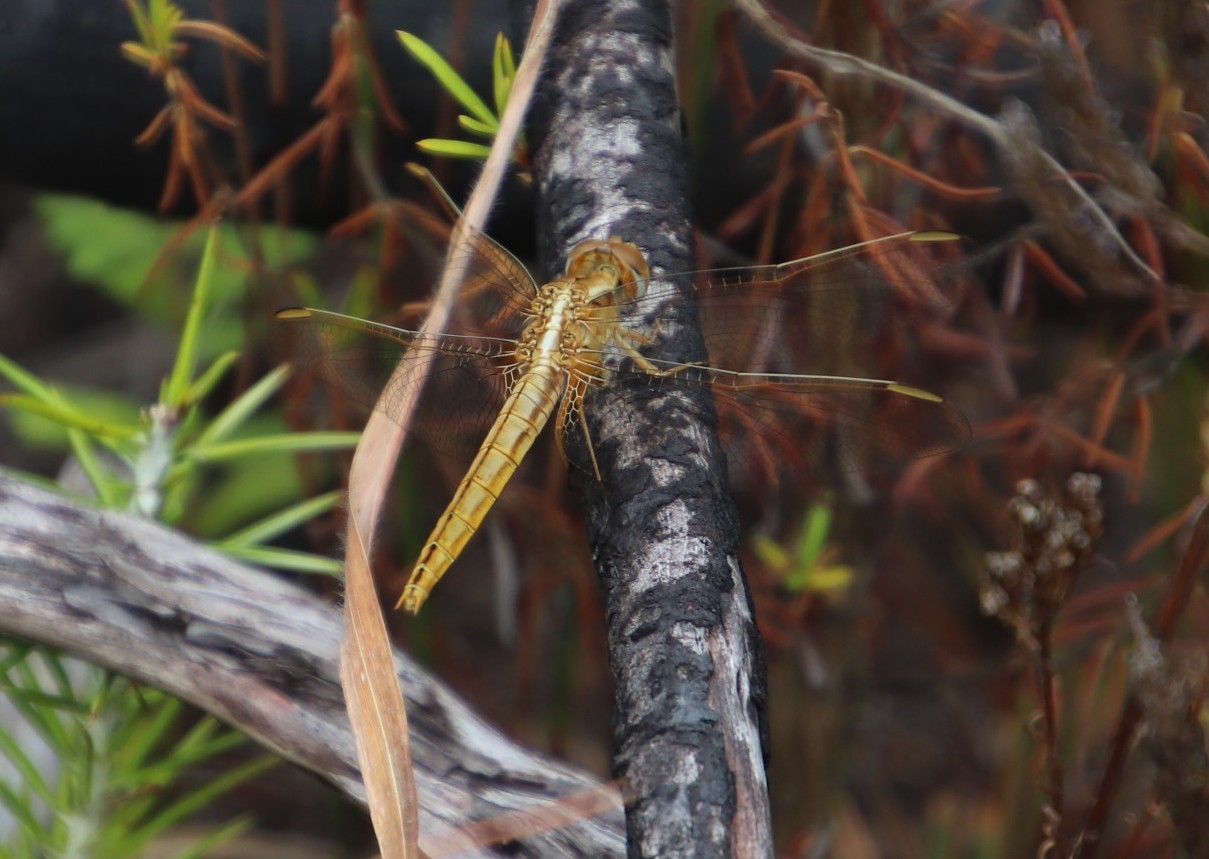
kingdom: Animalia
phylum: Arthropoda
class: Insecta
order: Odonata
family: Libellulidae
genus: Crocothemis
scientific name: Crocothemis erythraea
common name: Scarlet dragonfly
